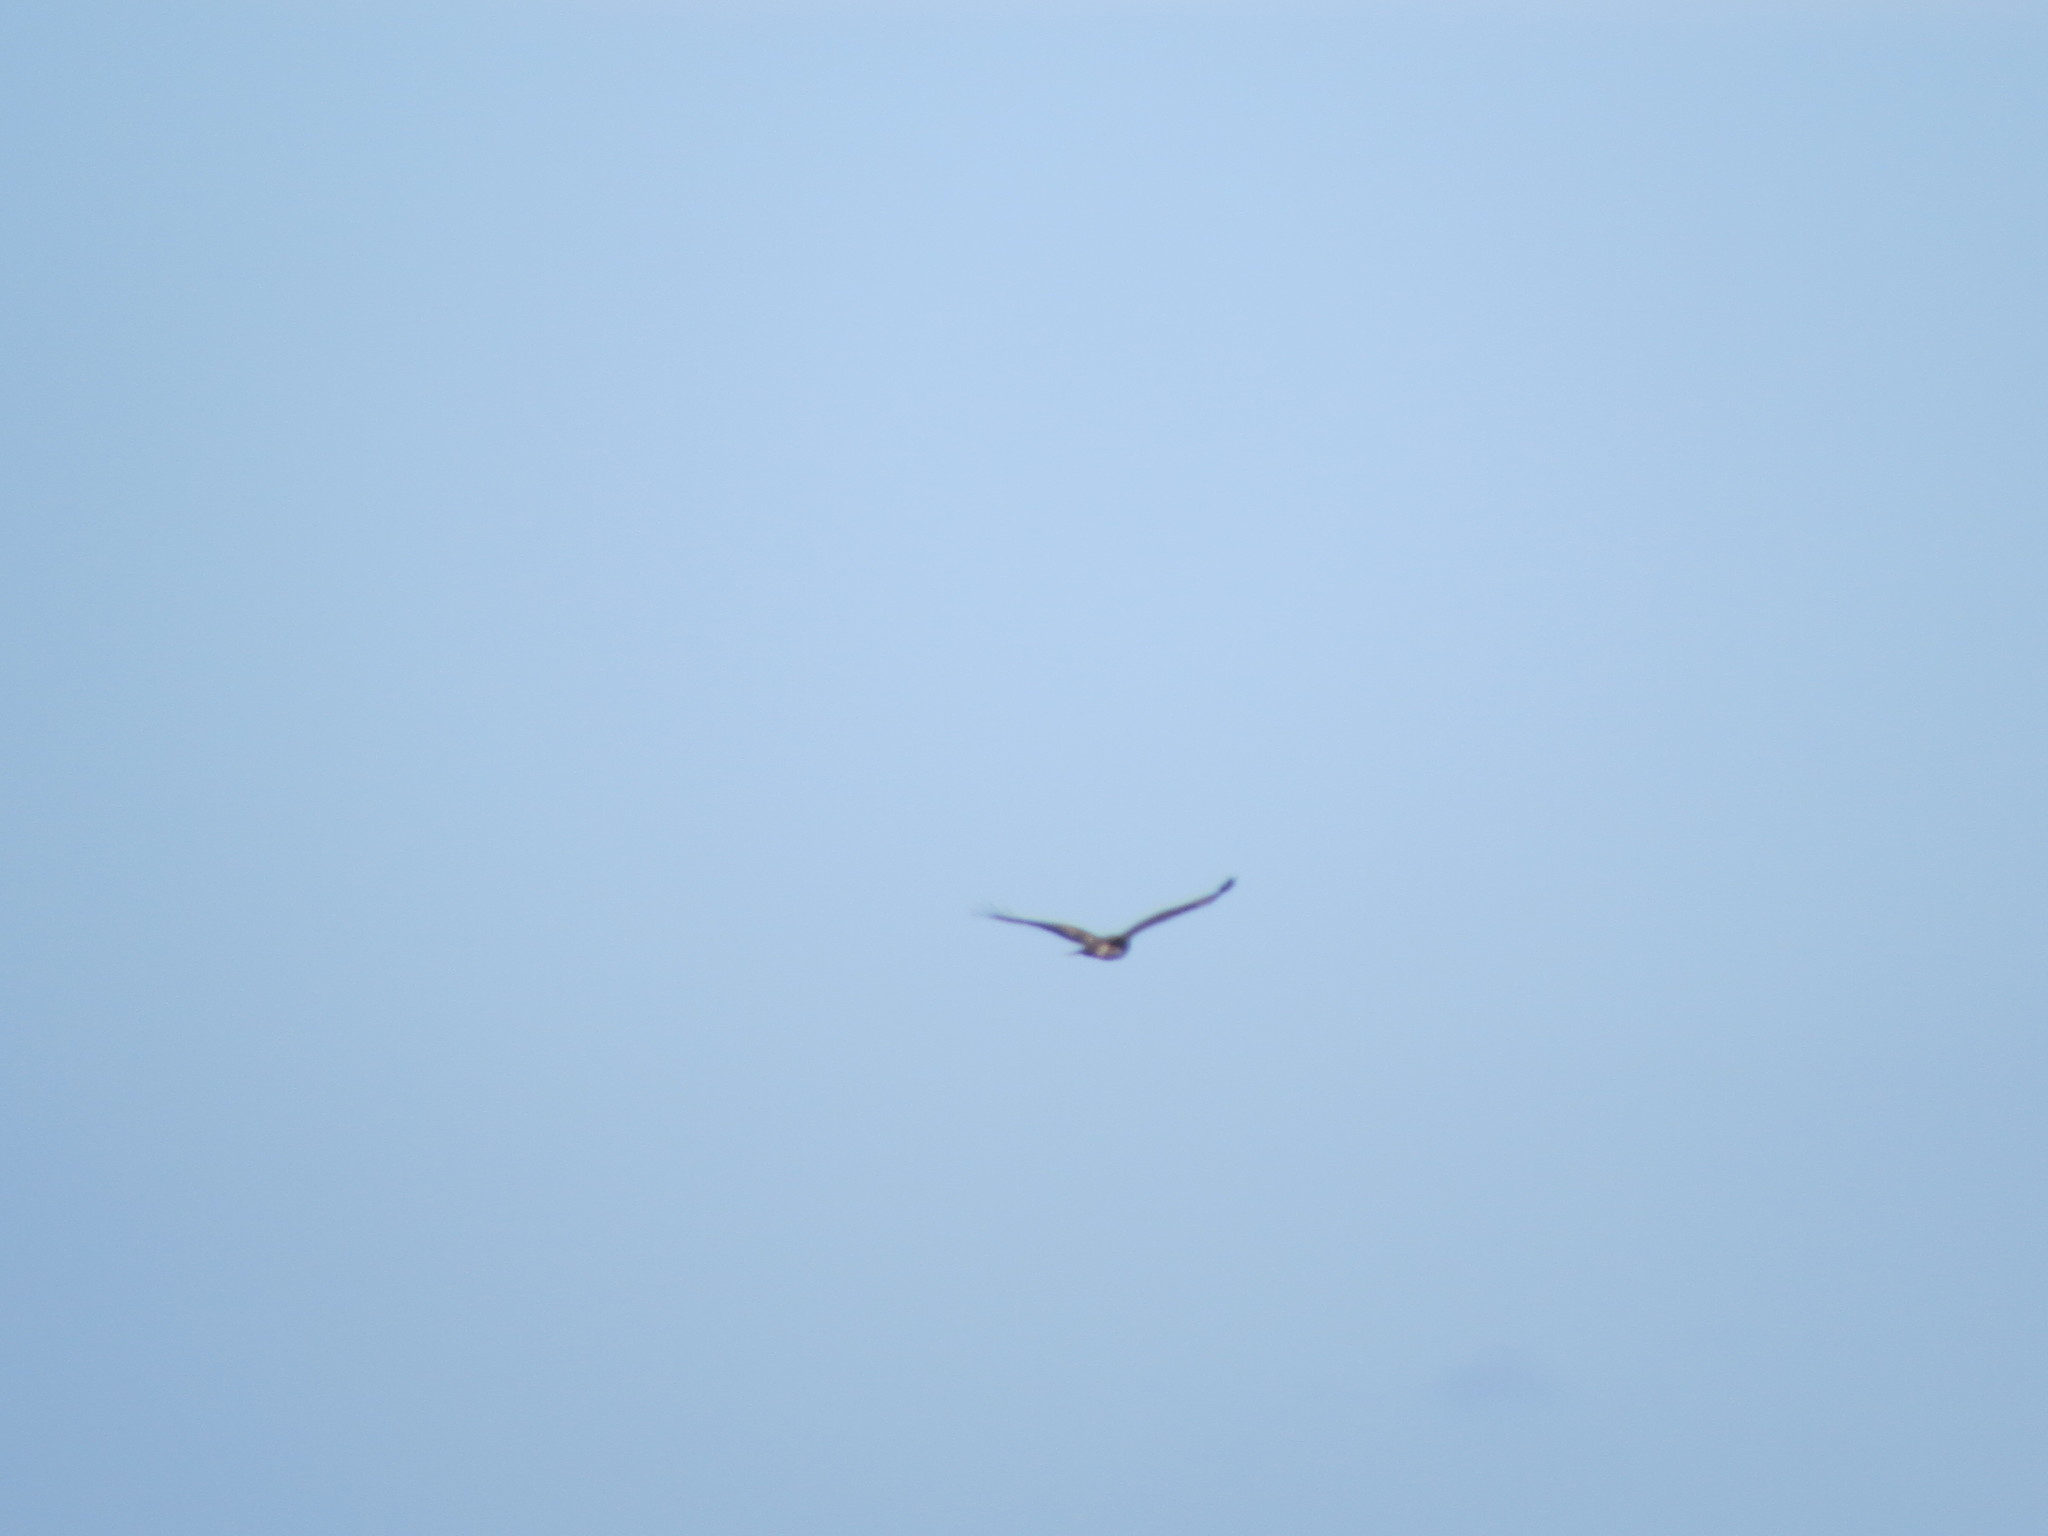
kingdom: Animalia
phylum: Chordata
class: Aves
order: Accipitriformes
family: Accipitridae
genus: Buteo
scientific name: Buteo buteo
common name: Common buzzard
